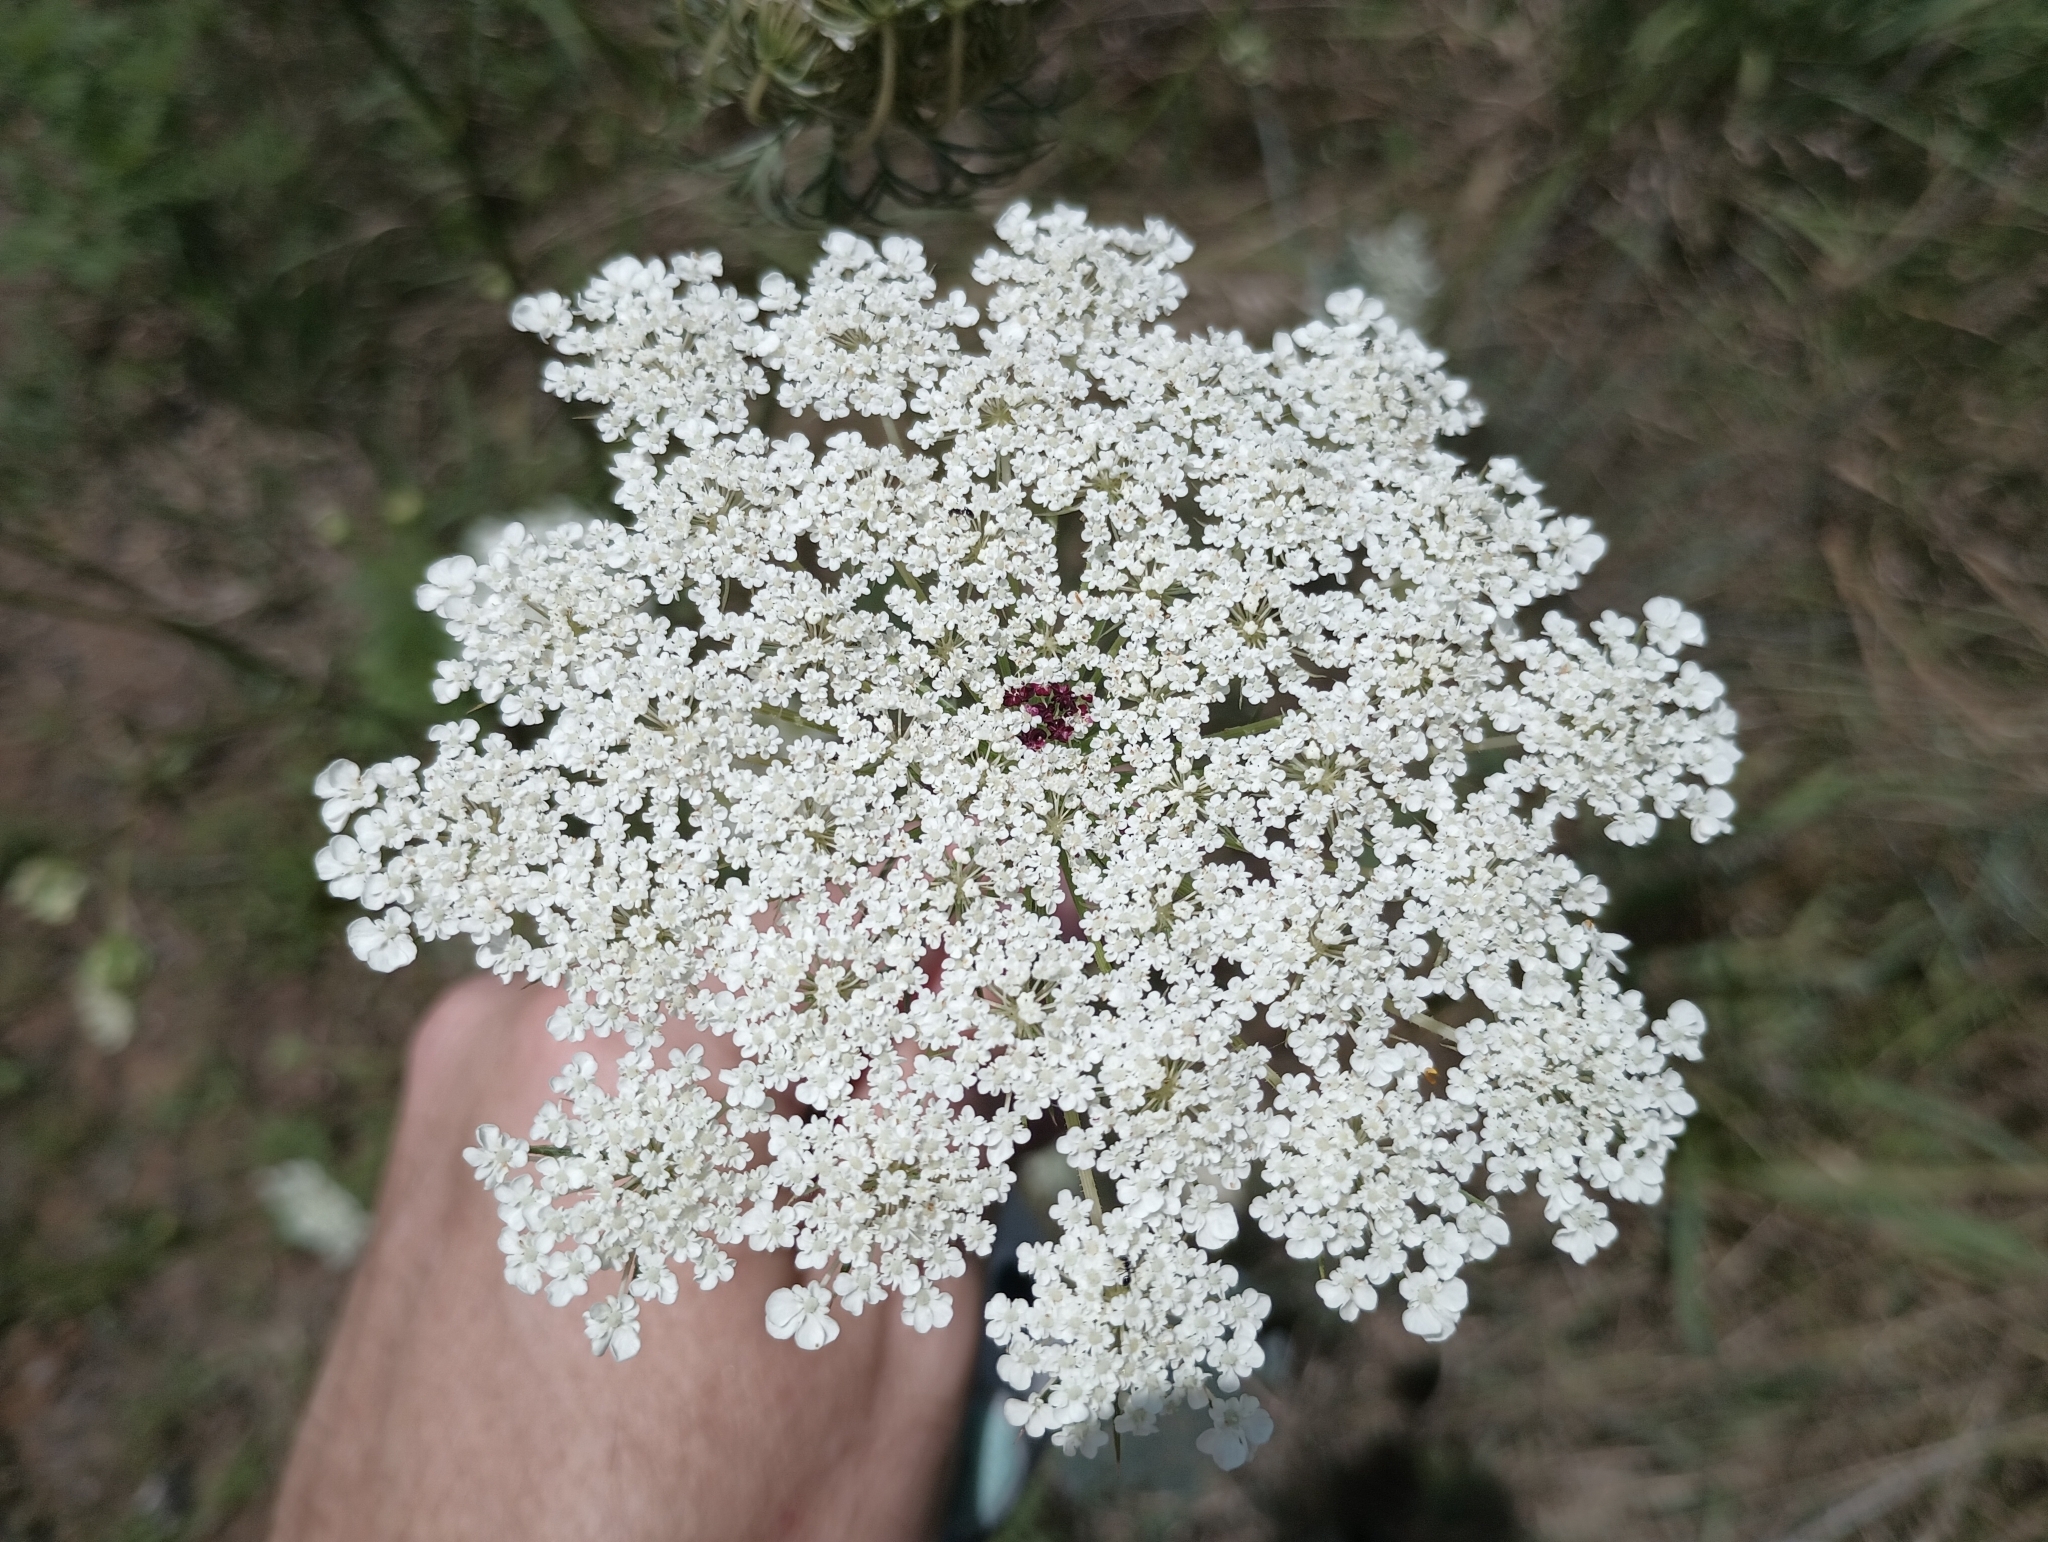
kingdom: Plantae
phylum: Tracheophyta
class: Magnoliopsida
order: Apiales
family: Apiaceae
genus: Daucus
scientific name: Daucus carota
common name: Wild carrot
